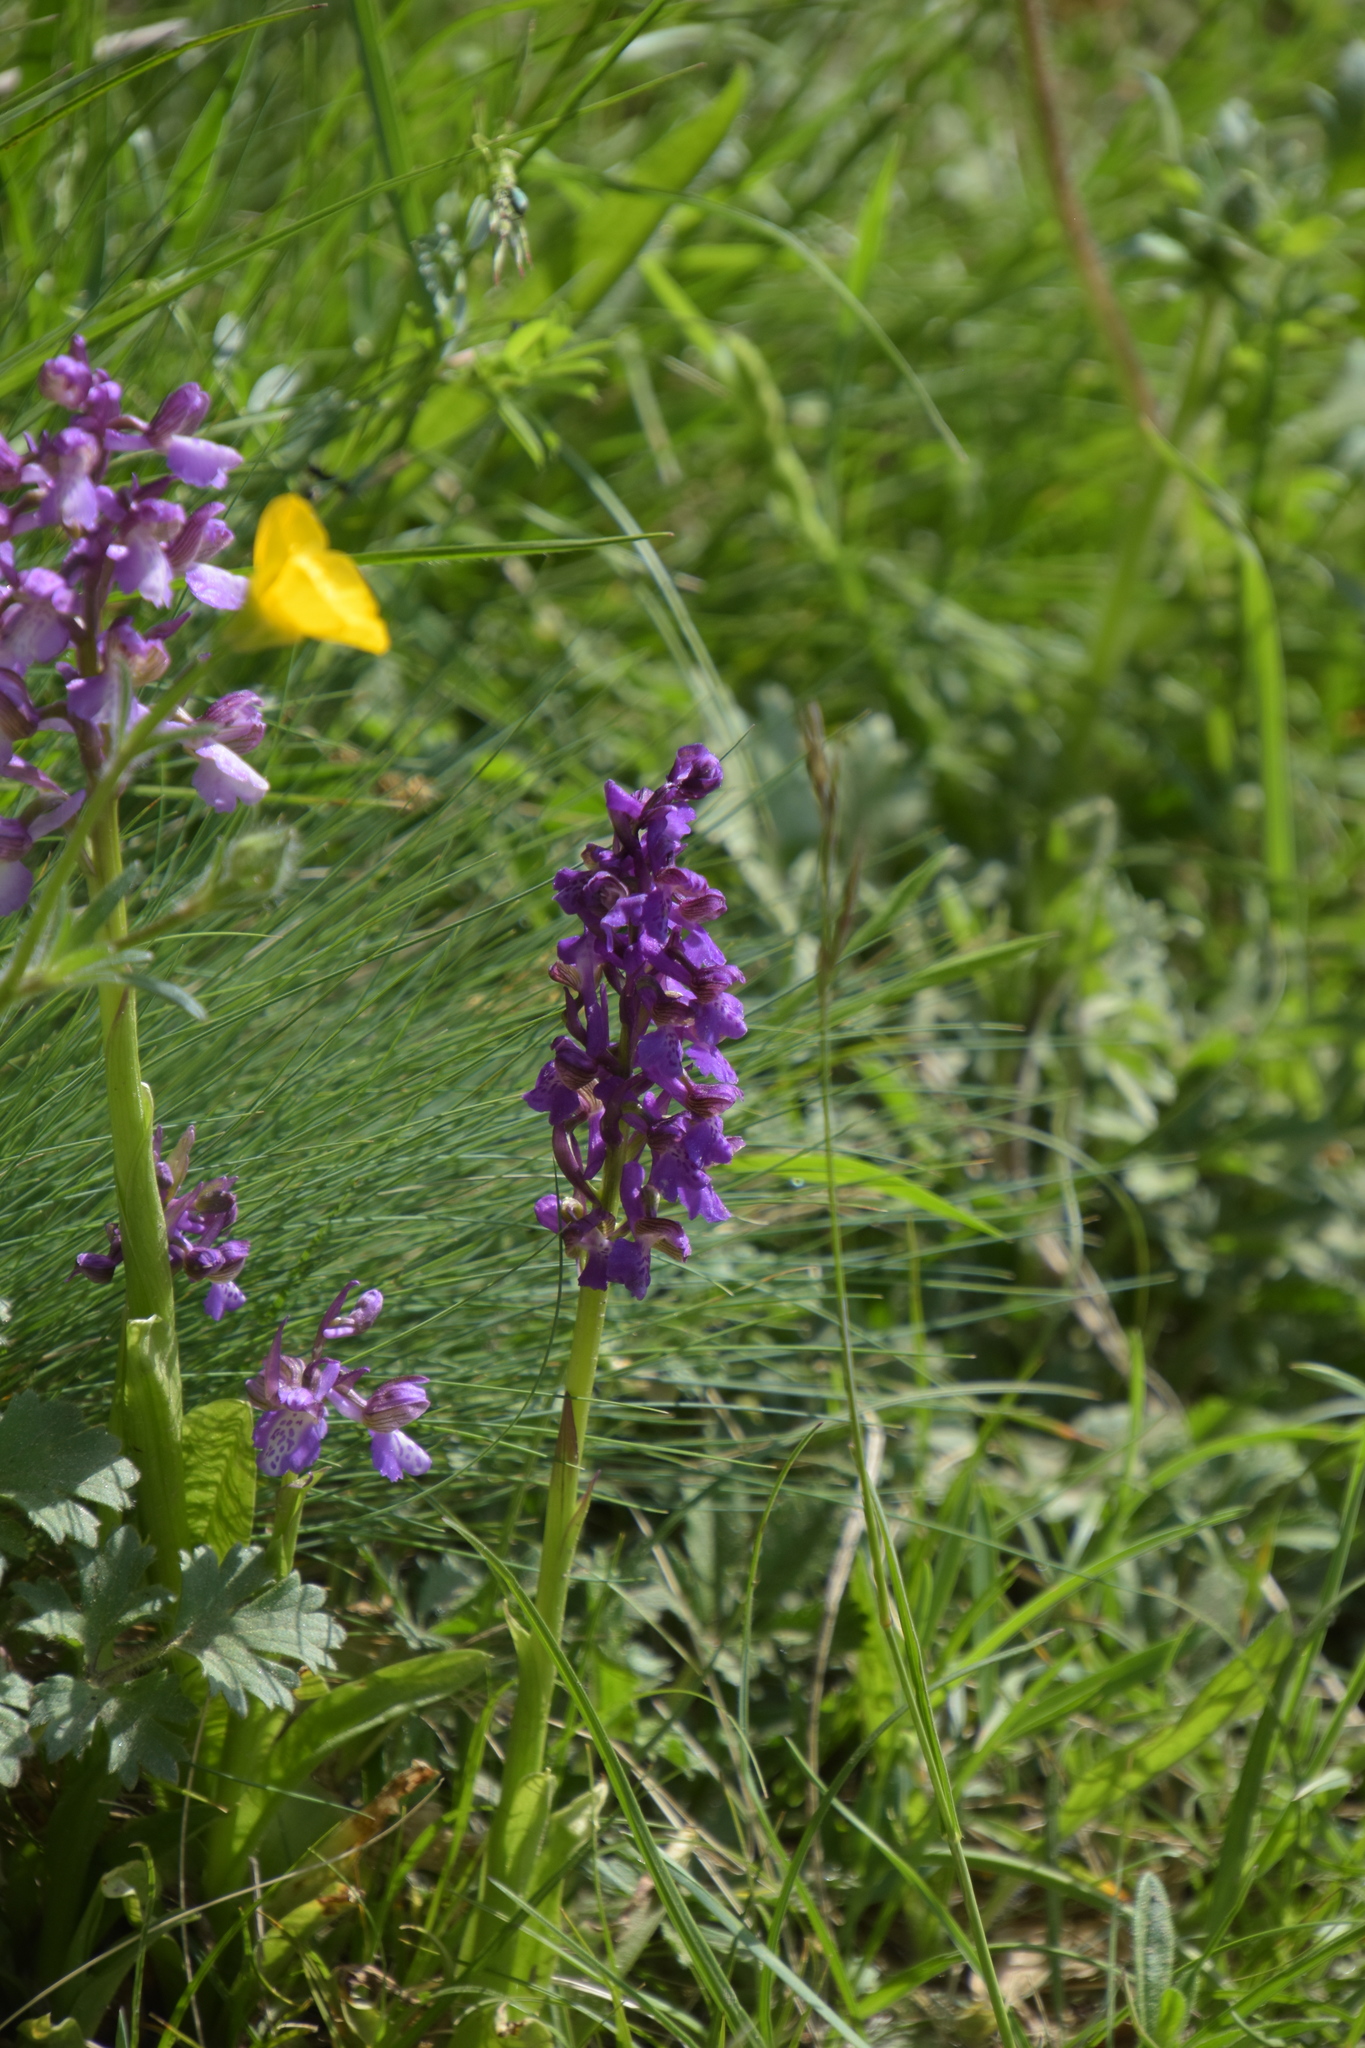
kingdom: Plantae
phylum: Tracheophyta
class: Liliopsida
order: Asparagales
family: Orchidaceae
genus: Anacamptis
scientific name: Anacamptis morio
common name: Green-winged orchid
